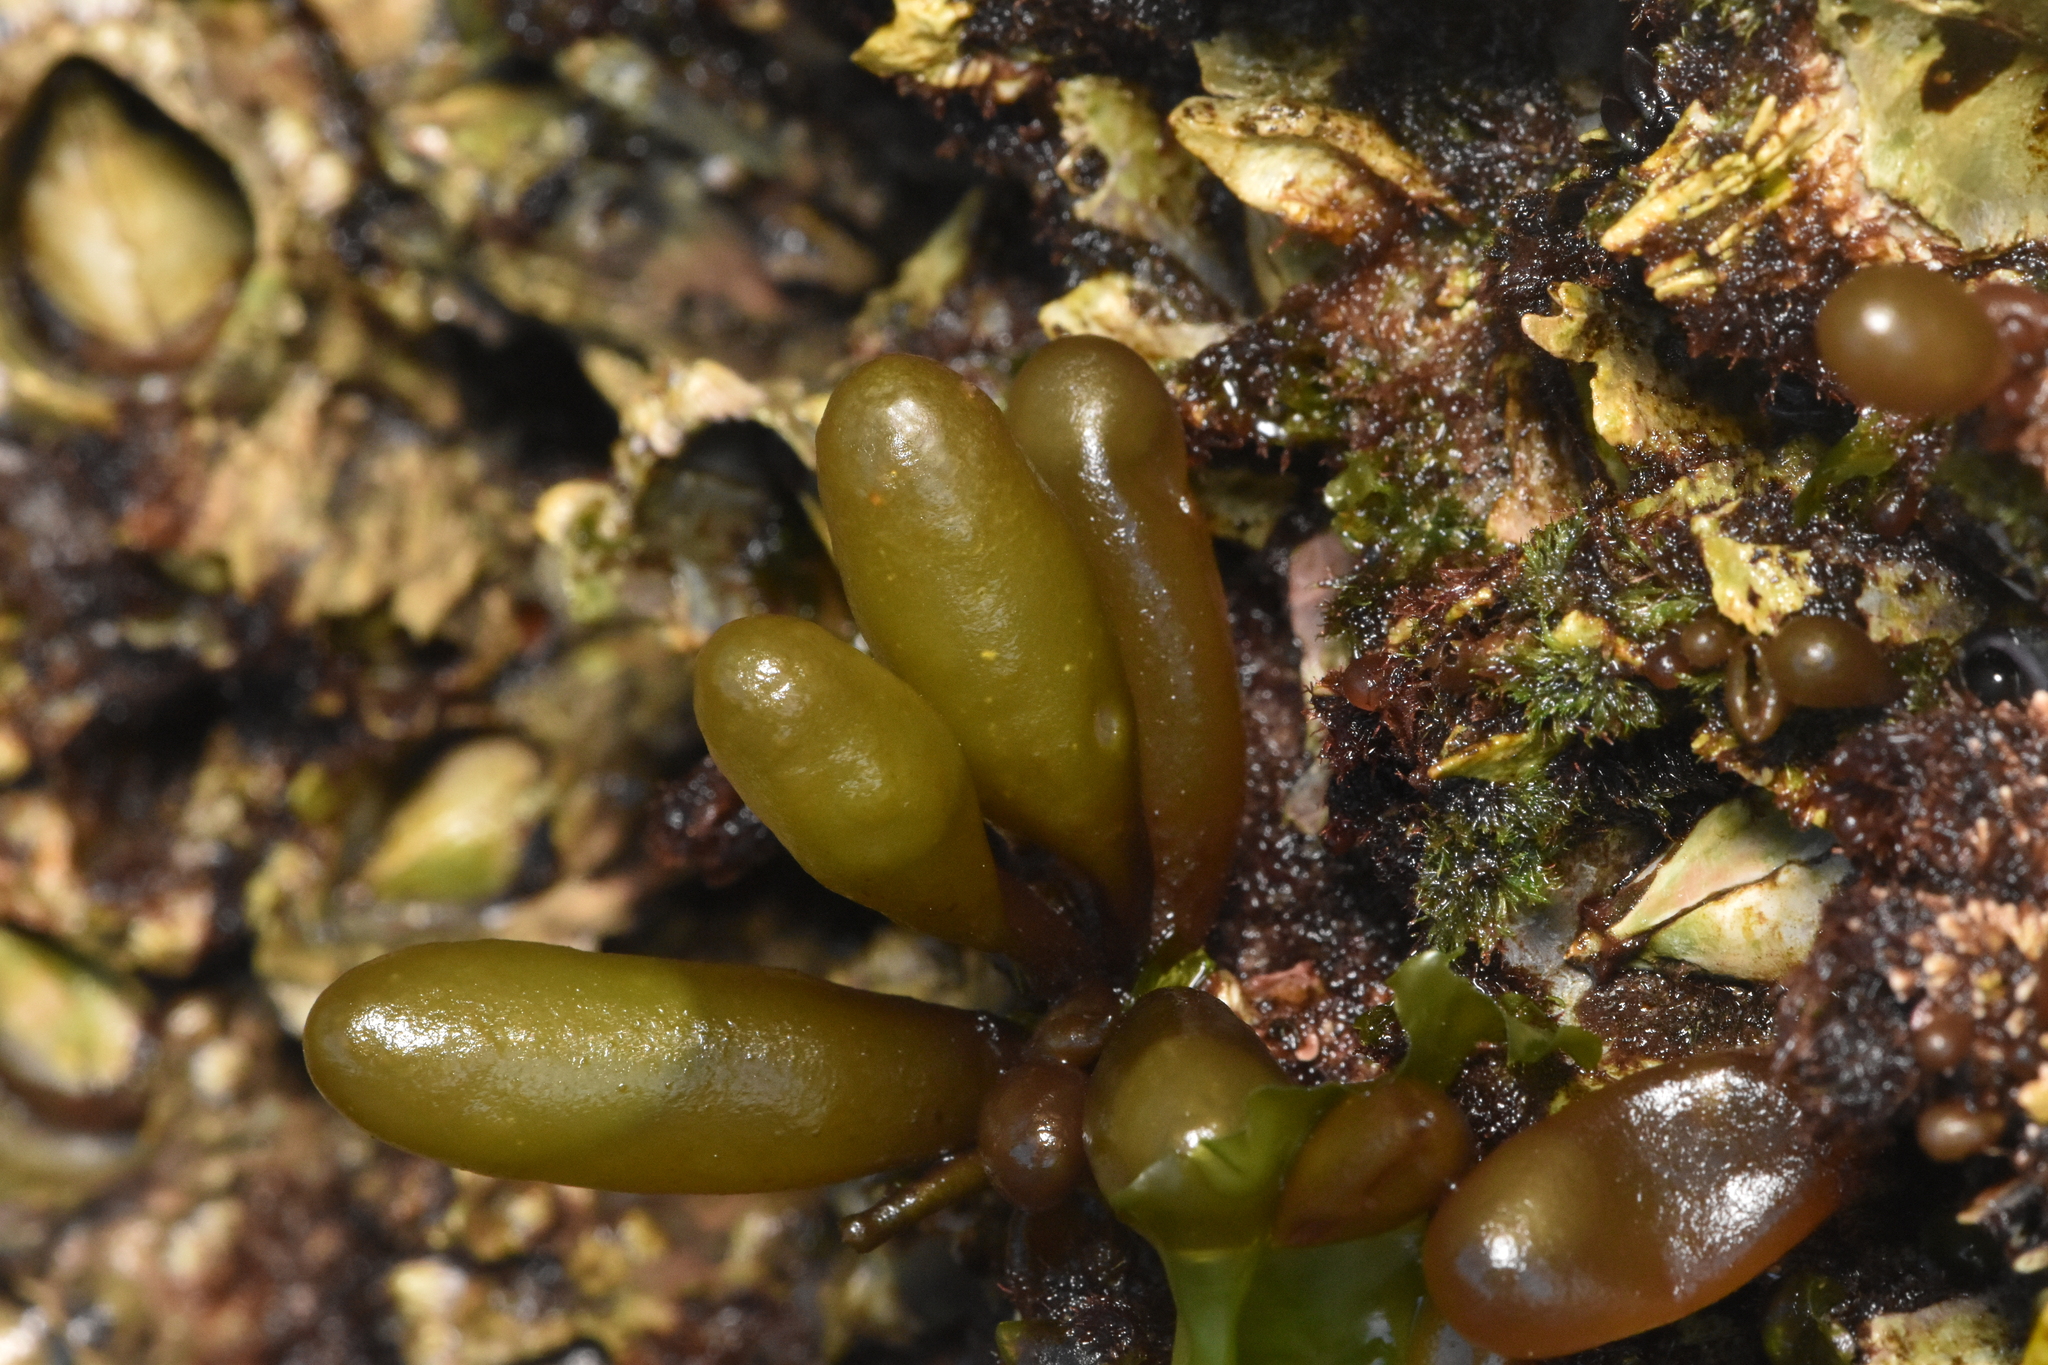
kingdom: Plantae
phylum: Rhodophyta
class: Florideophyceae
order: Palmariales
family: Palmariaceae
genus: Halosaccion
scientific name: Halosaccion glandiforme
